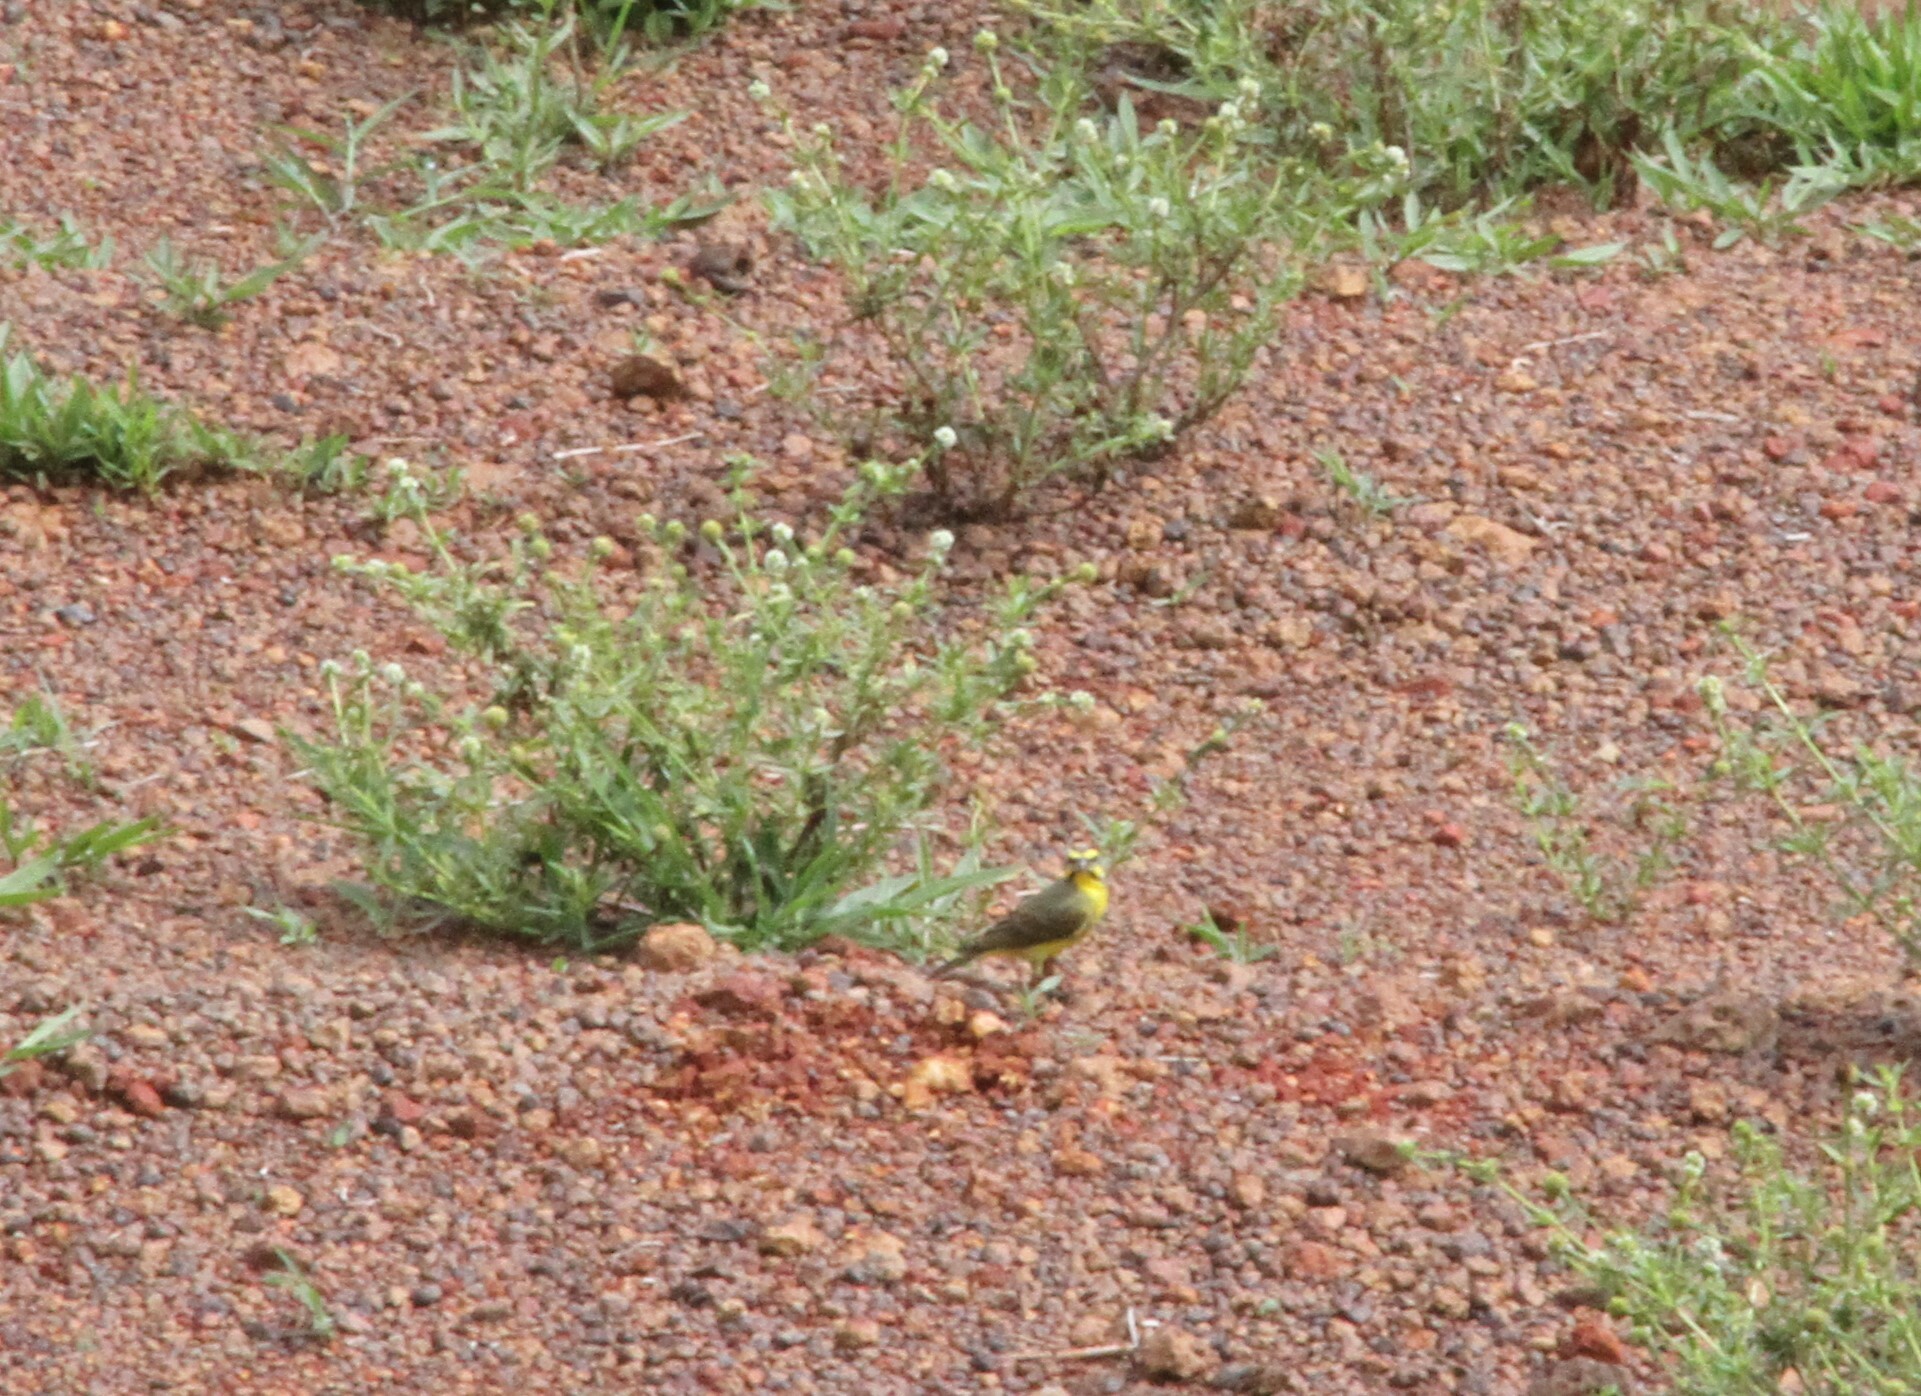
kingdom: Animalia
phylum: Chordata
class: Aves
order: Passeriformes
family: Fringillidae
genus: Crithagra
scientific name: Crithagra mozambica
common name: Yellow-fronted canary
